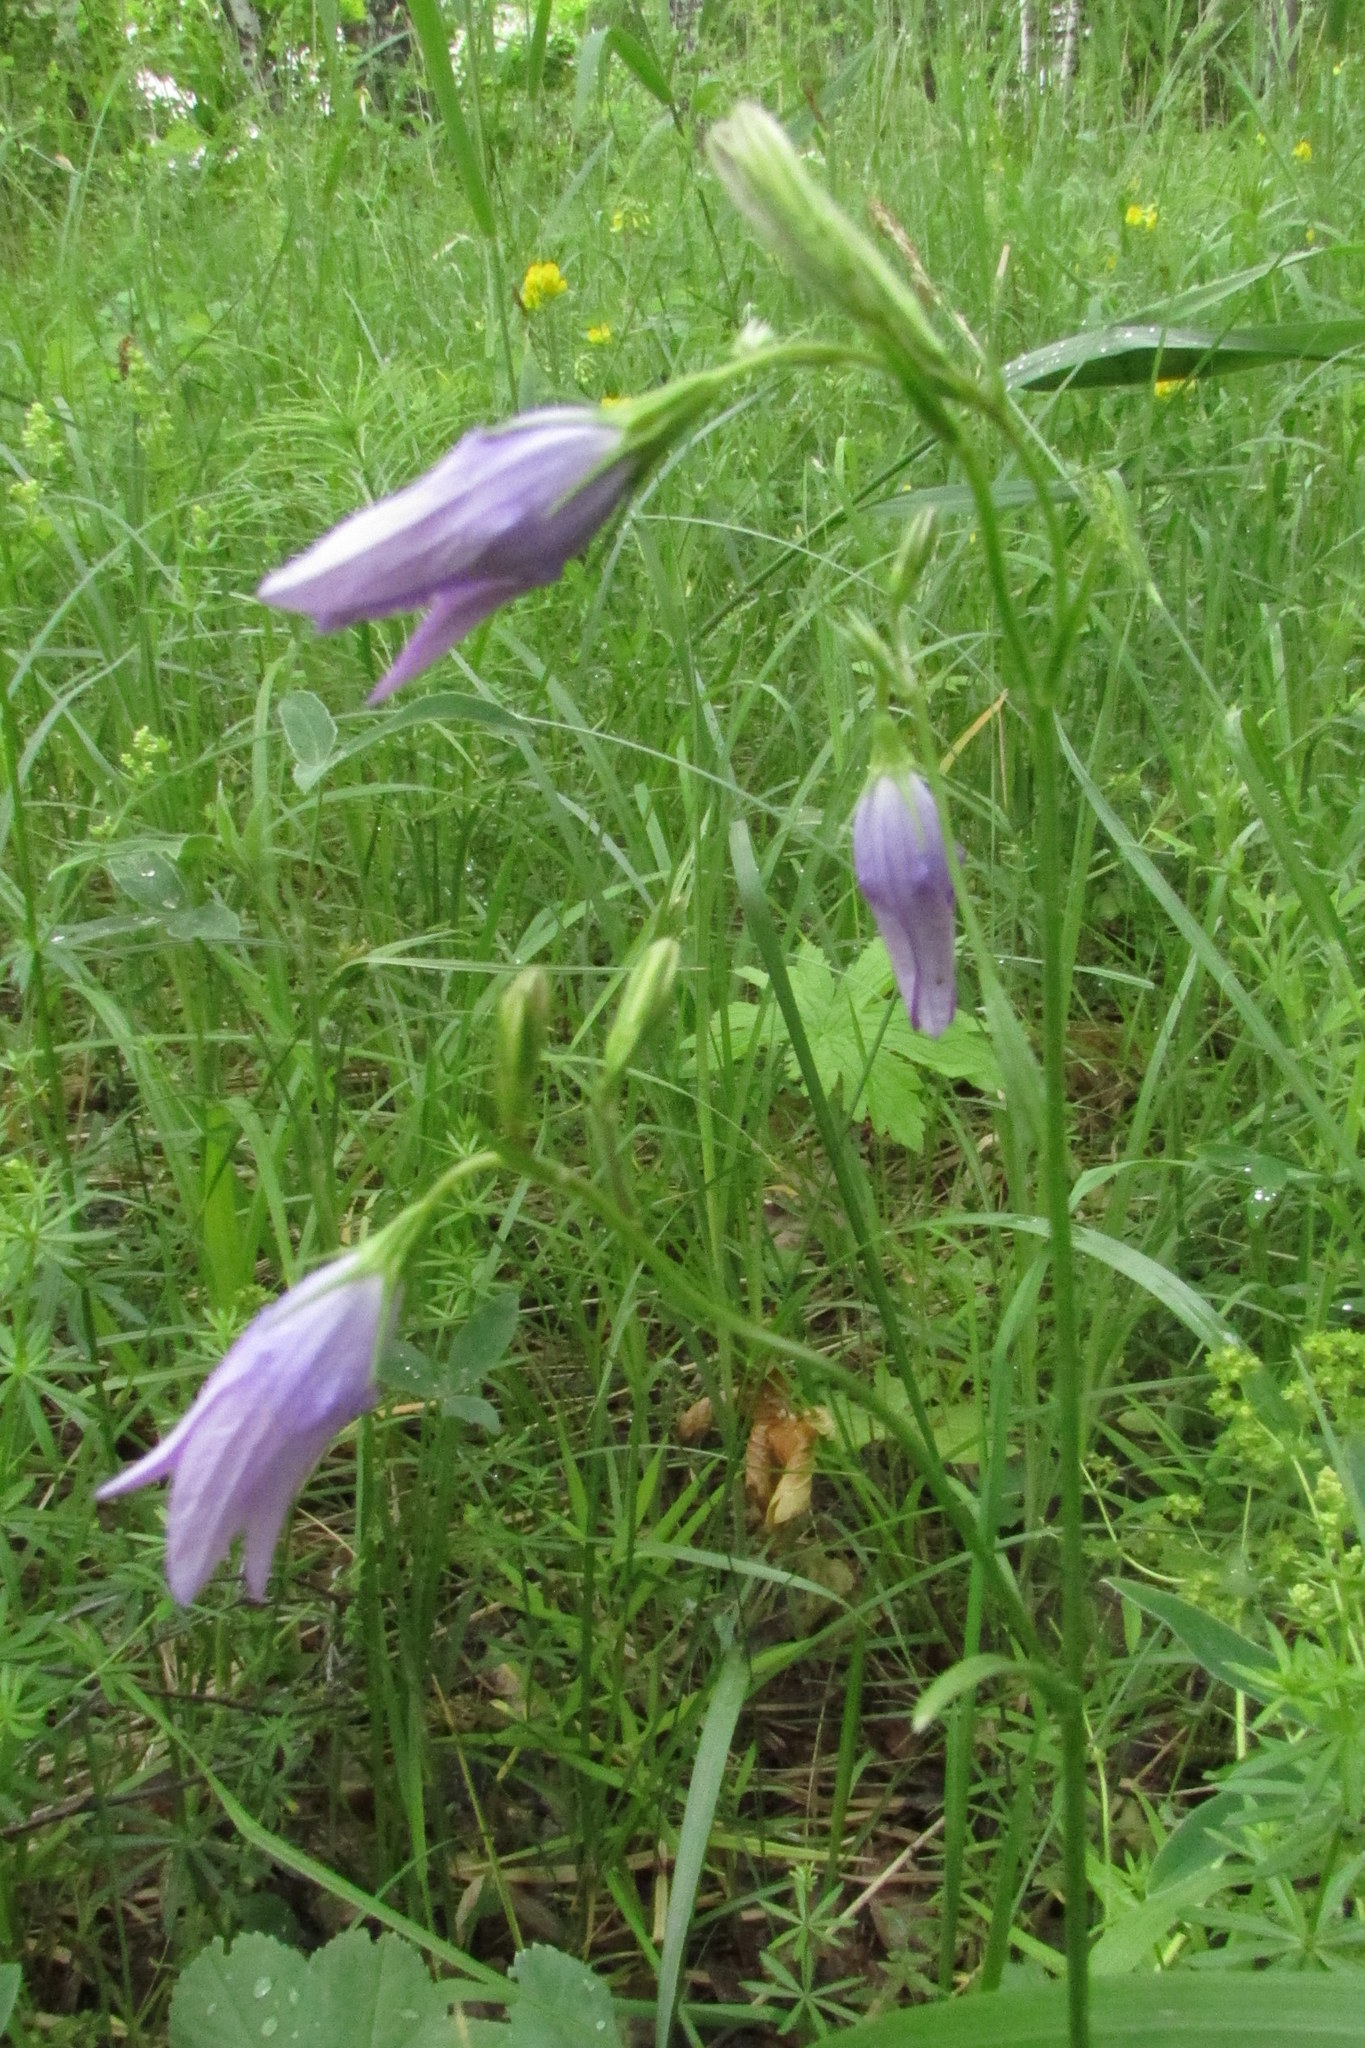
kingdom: Plantae
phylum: Tracheophyta
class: Magnoliopsida
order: Asterales
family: Campanulaceae
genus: Campanula
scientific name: Campanula patula
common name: Spreading bellflower
